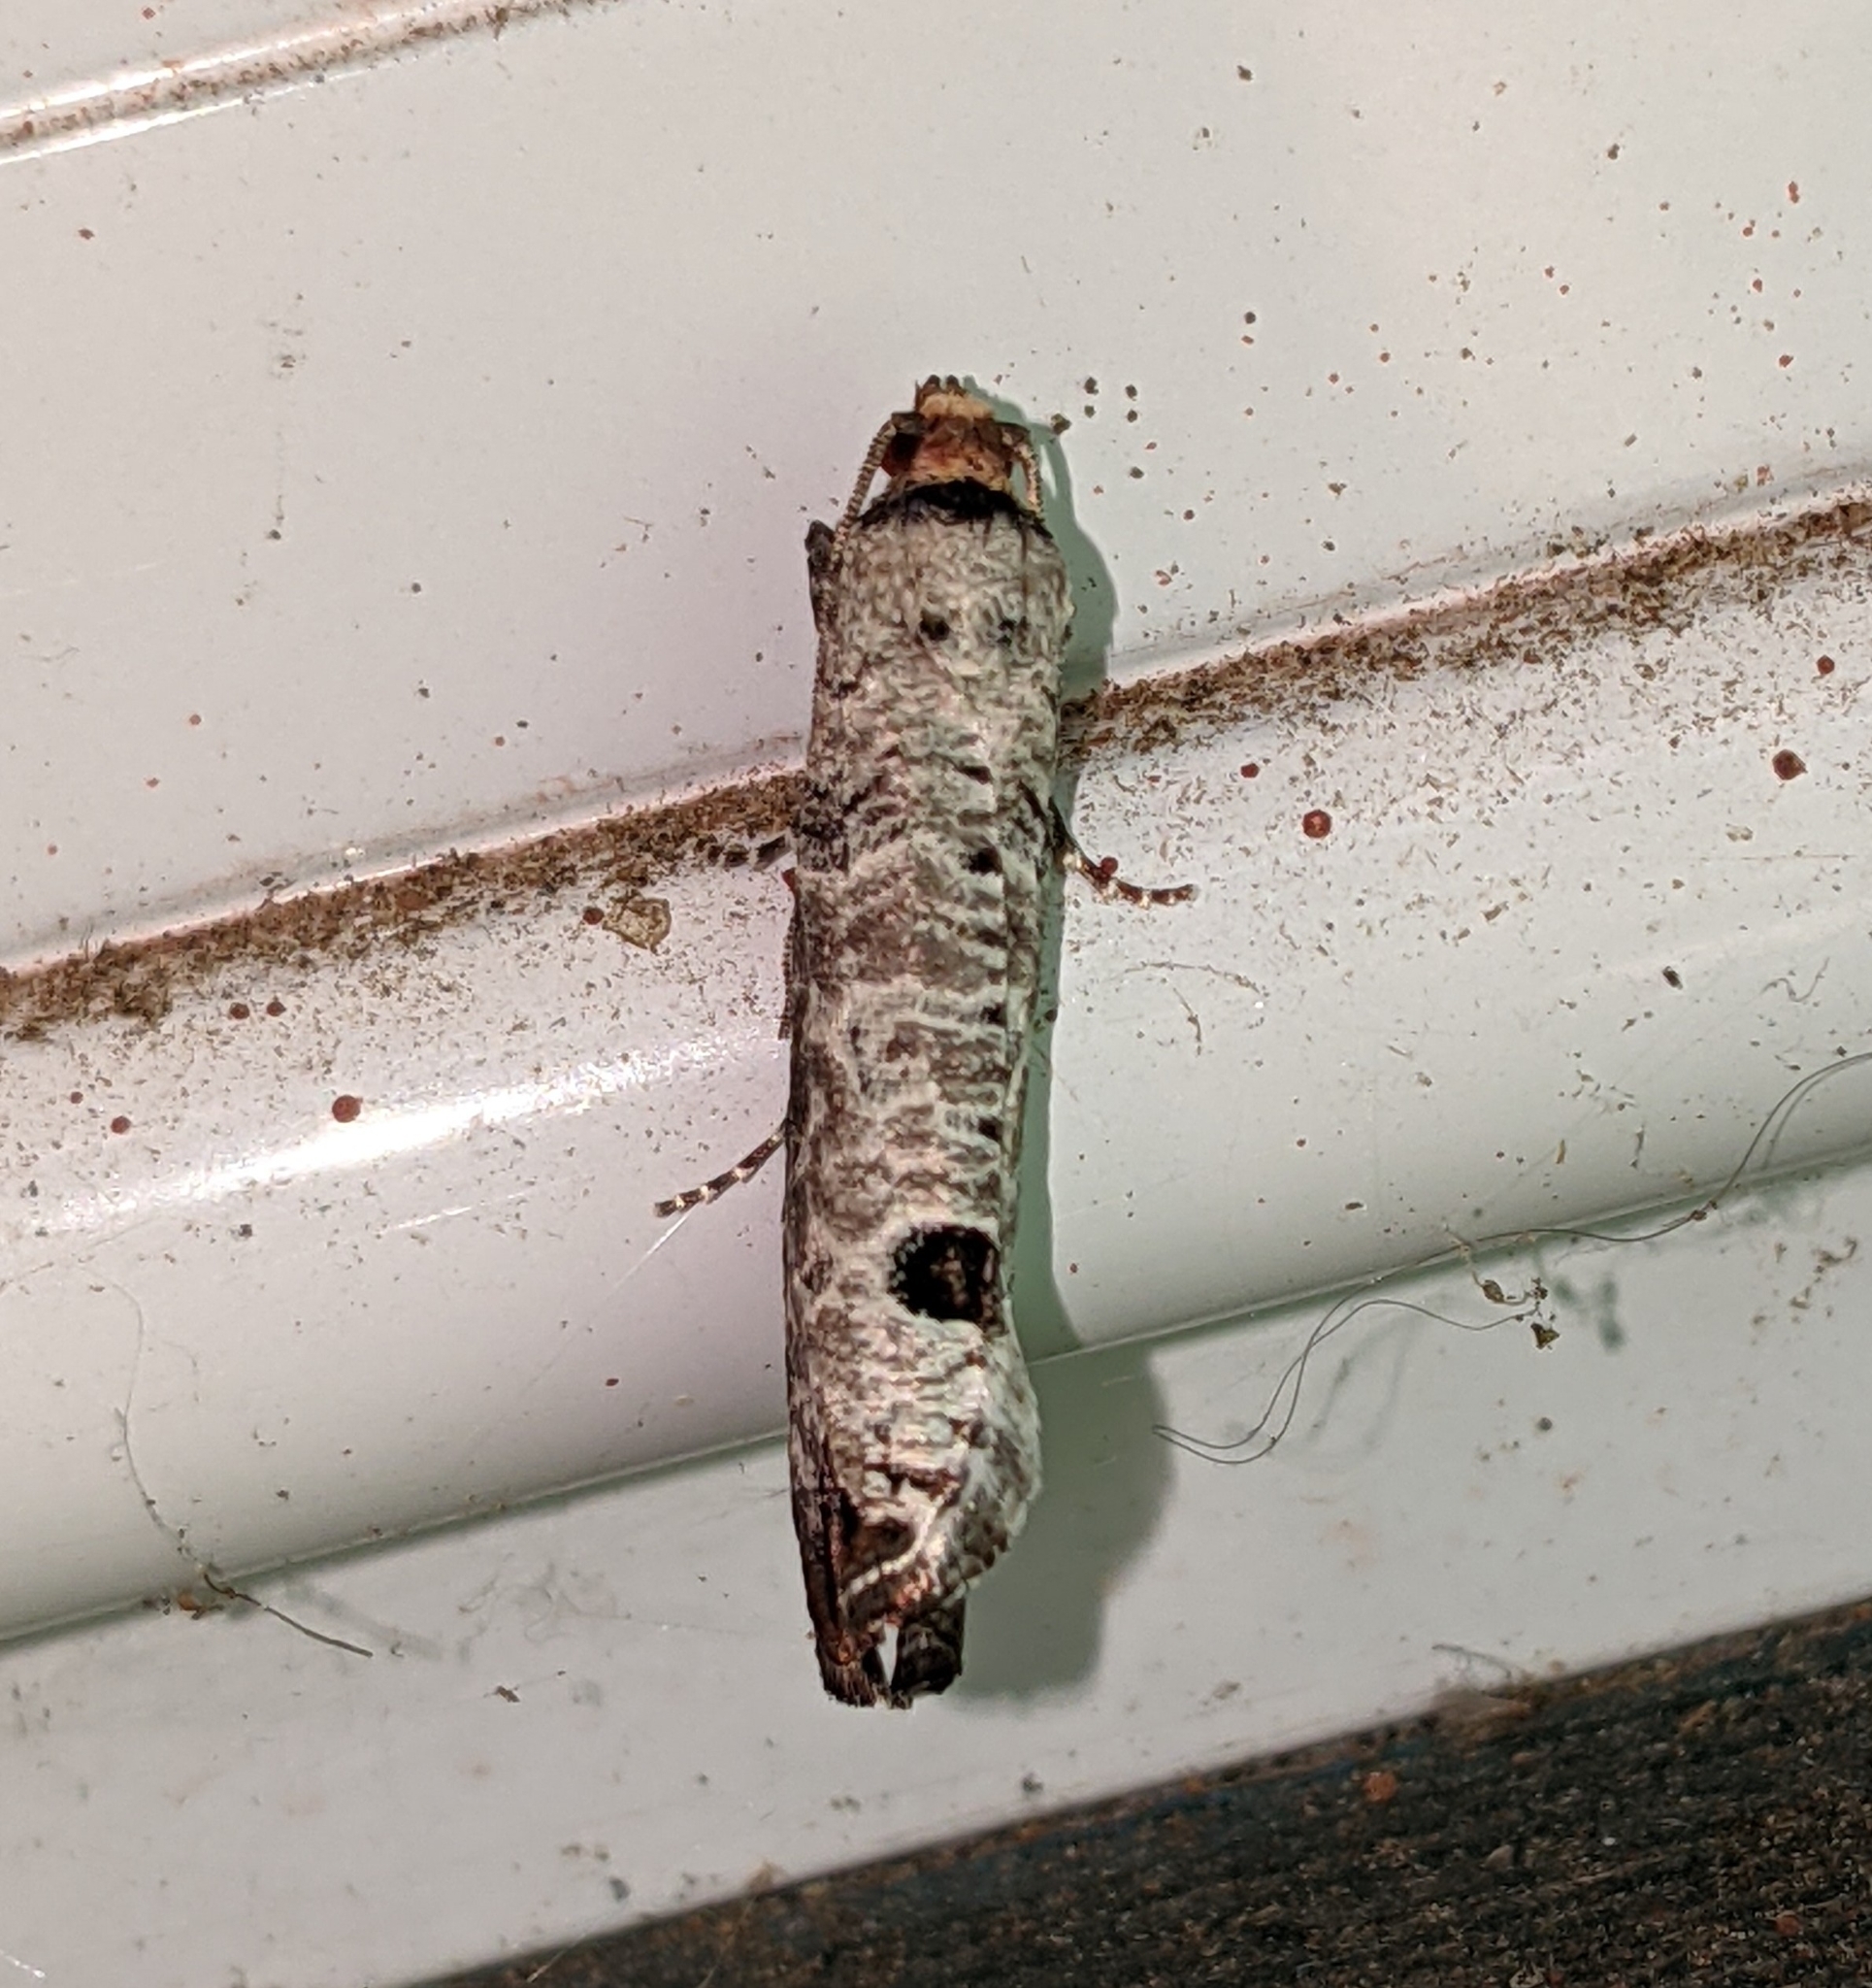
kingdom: Animalia
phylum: Arthropoda
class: Insecta
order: Lepidoptera
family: Tortricidae
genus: Retinia
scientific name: Retinia picicolana
